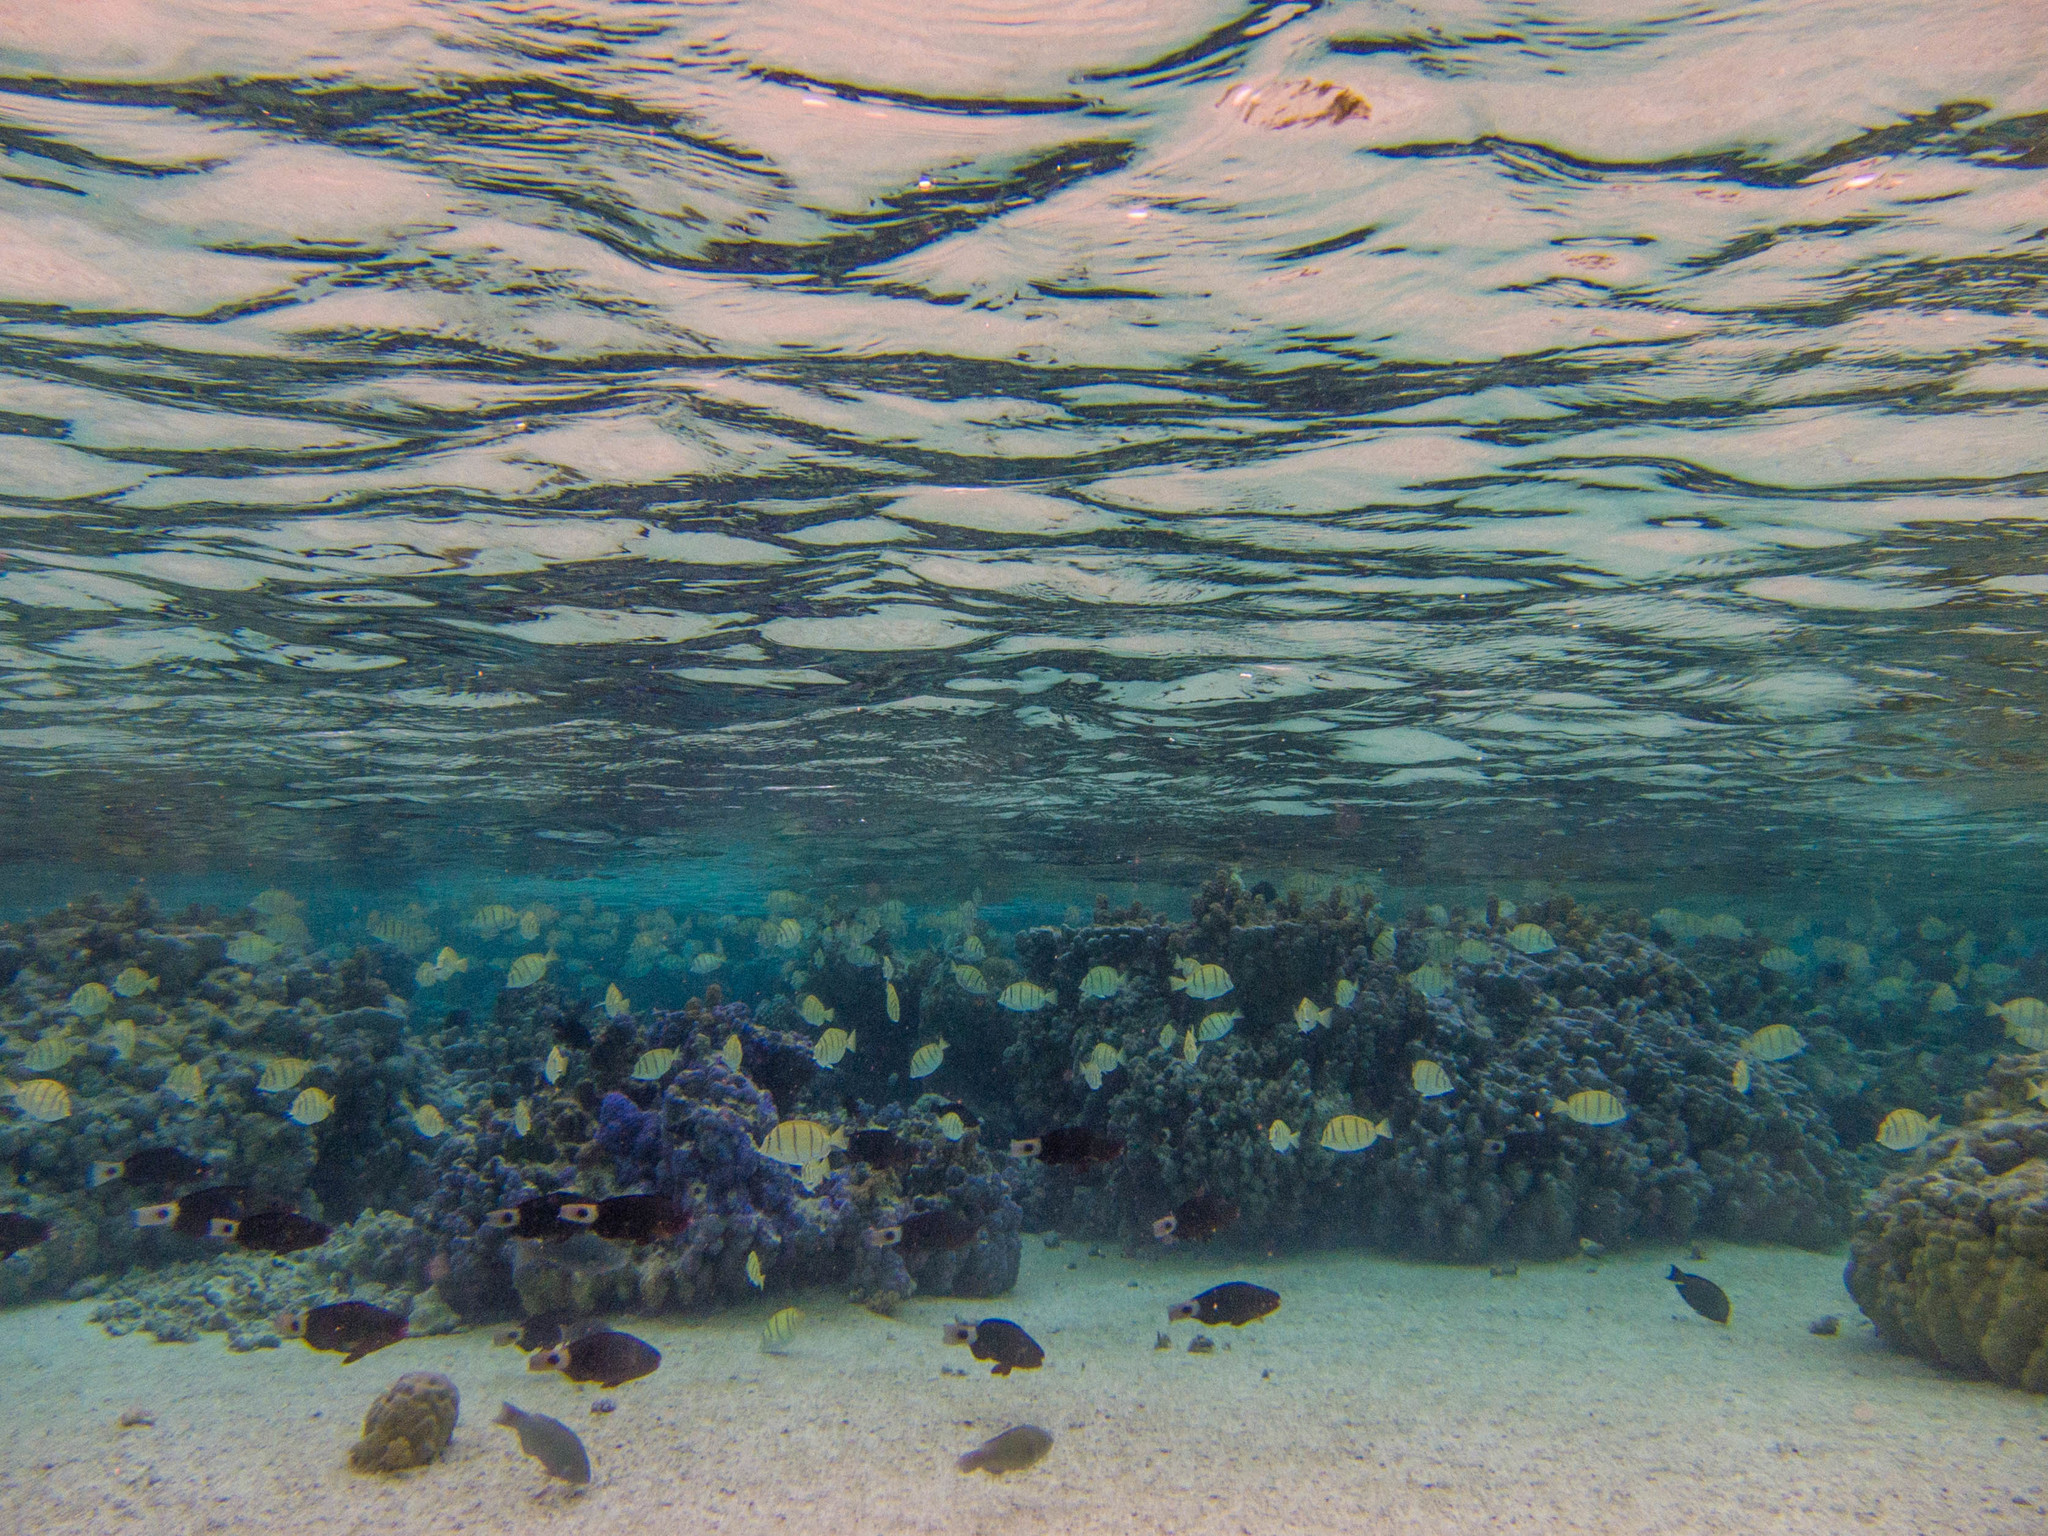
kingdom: Animalia
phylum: Chordata
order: Perciformes
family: Scaridae
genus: Chlorurus
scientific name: Chlorurus spilurus
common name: Bullethead parrotfish
